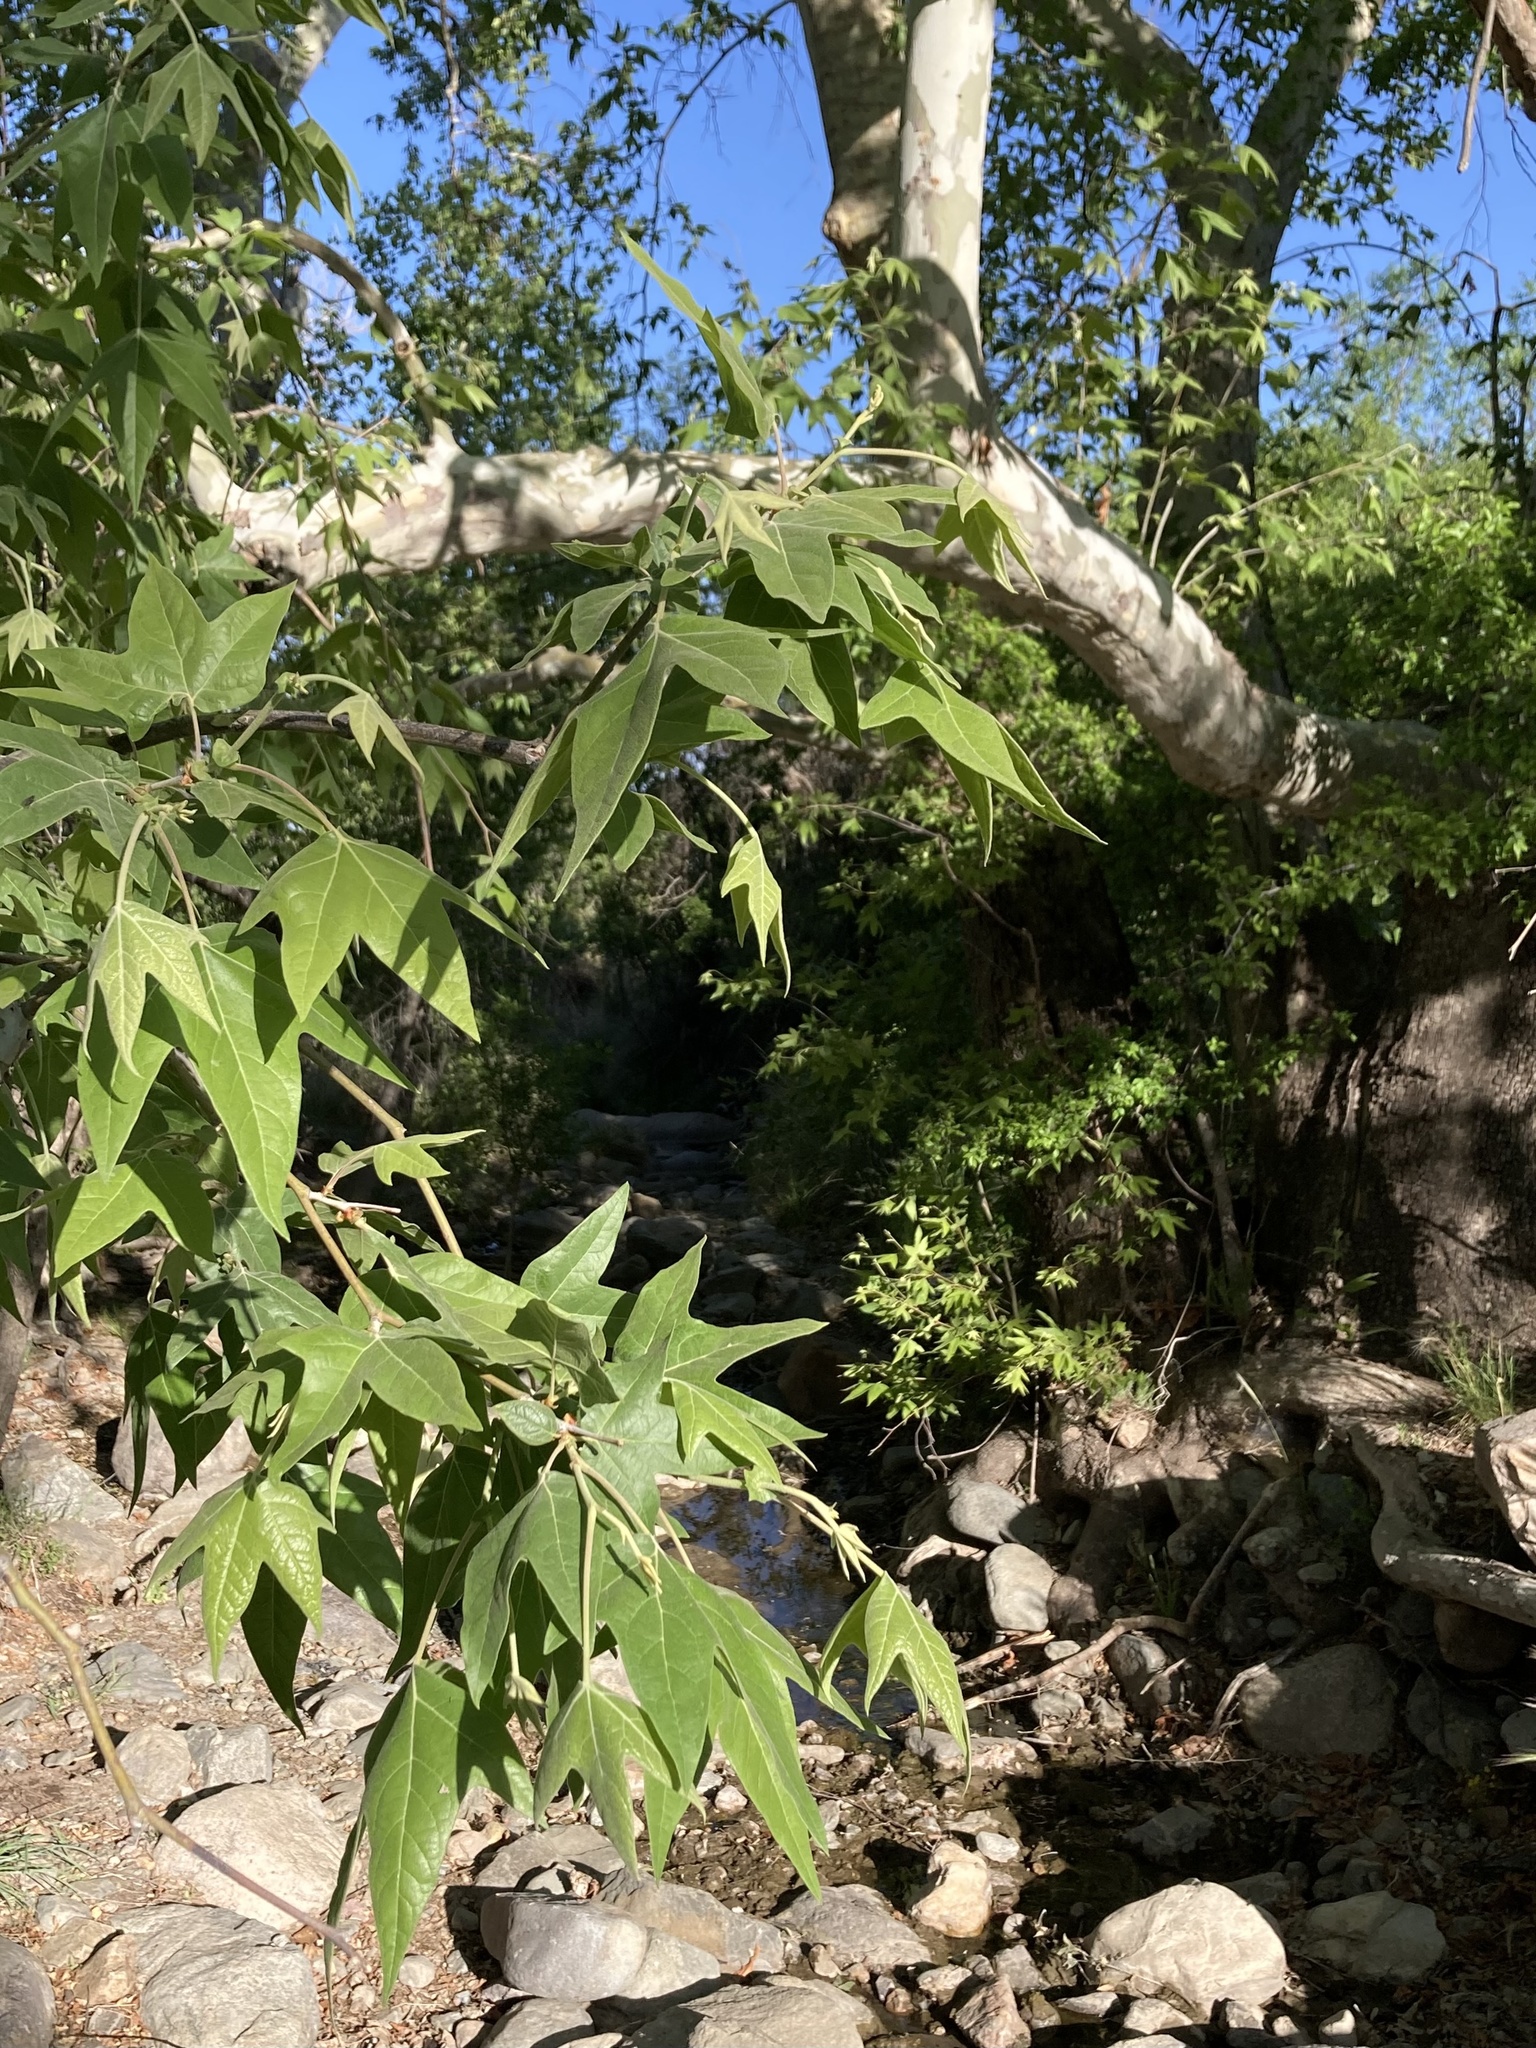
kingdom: Plantae
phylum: Tracheophyta
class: Magnoliopsida
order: Proteales
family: Platanaceae
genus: Platanus
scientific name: Platanus wrightii
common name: Arizona sycamore
